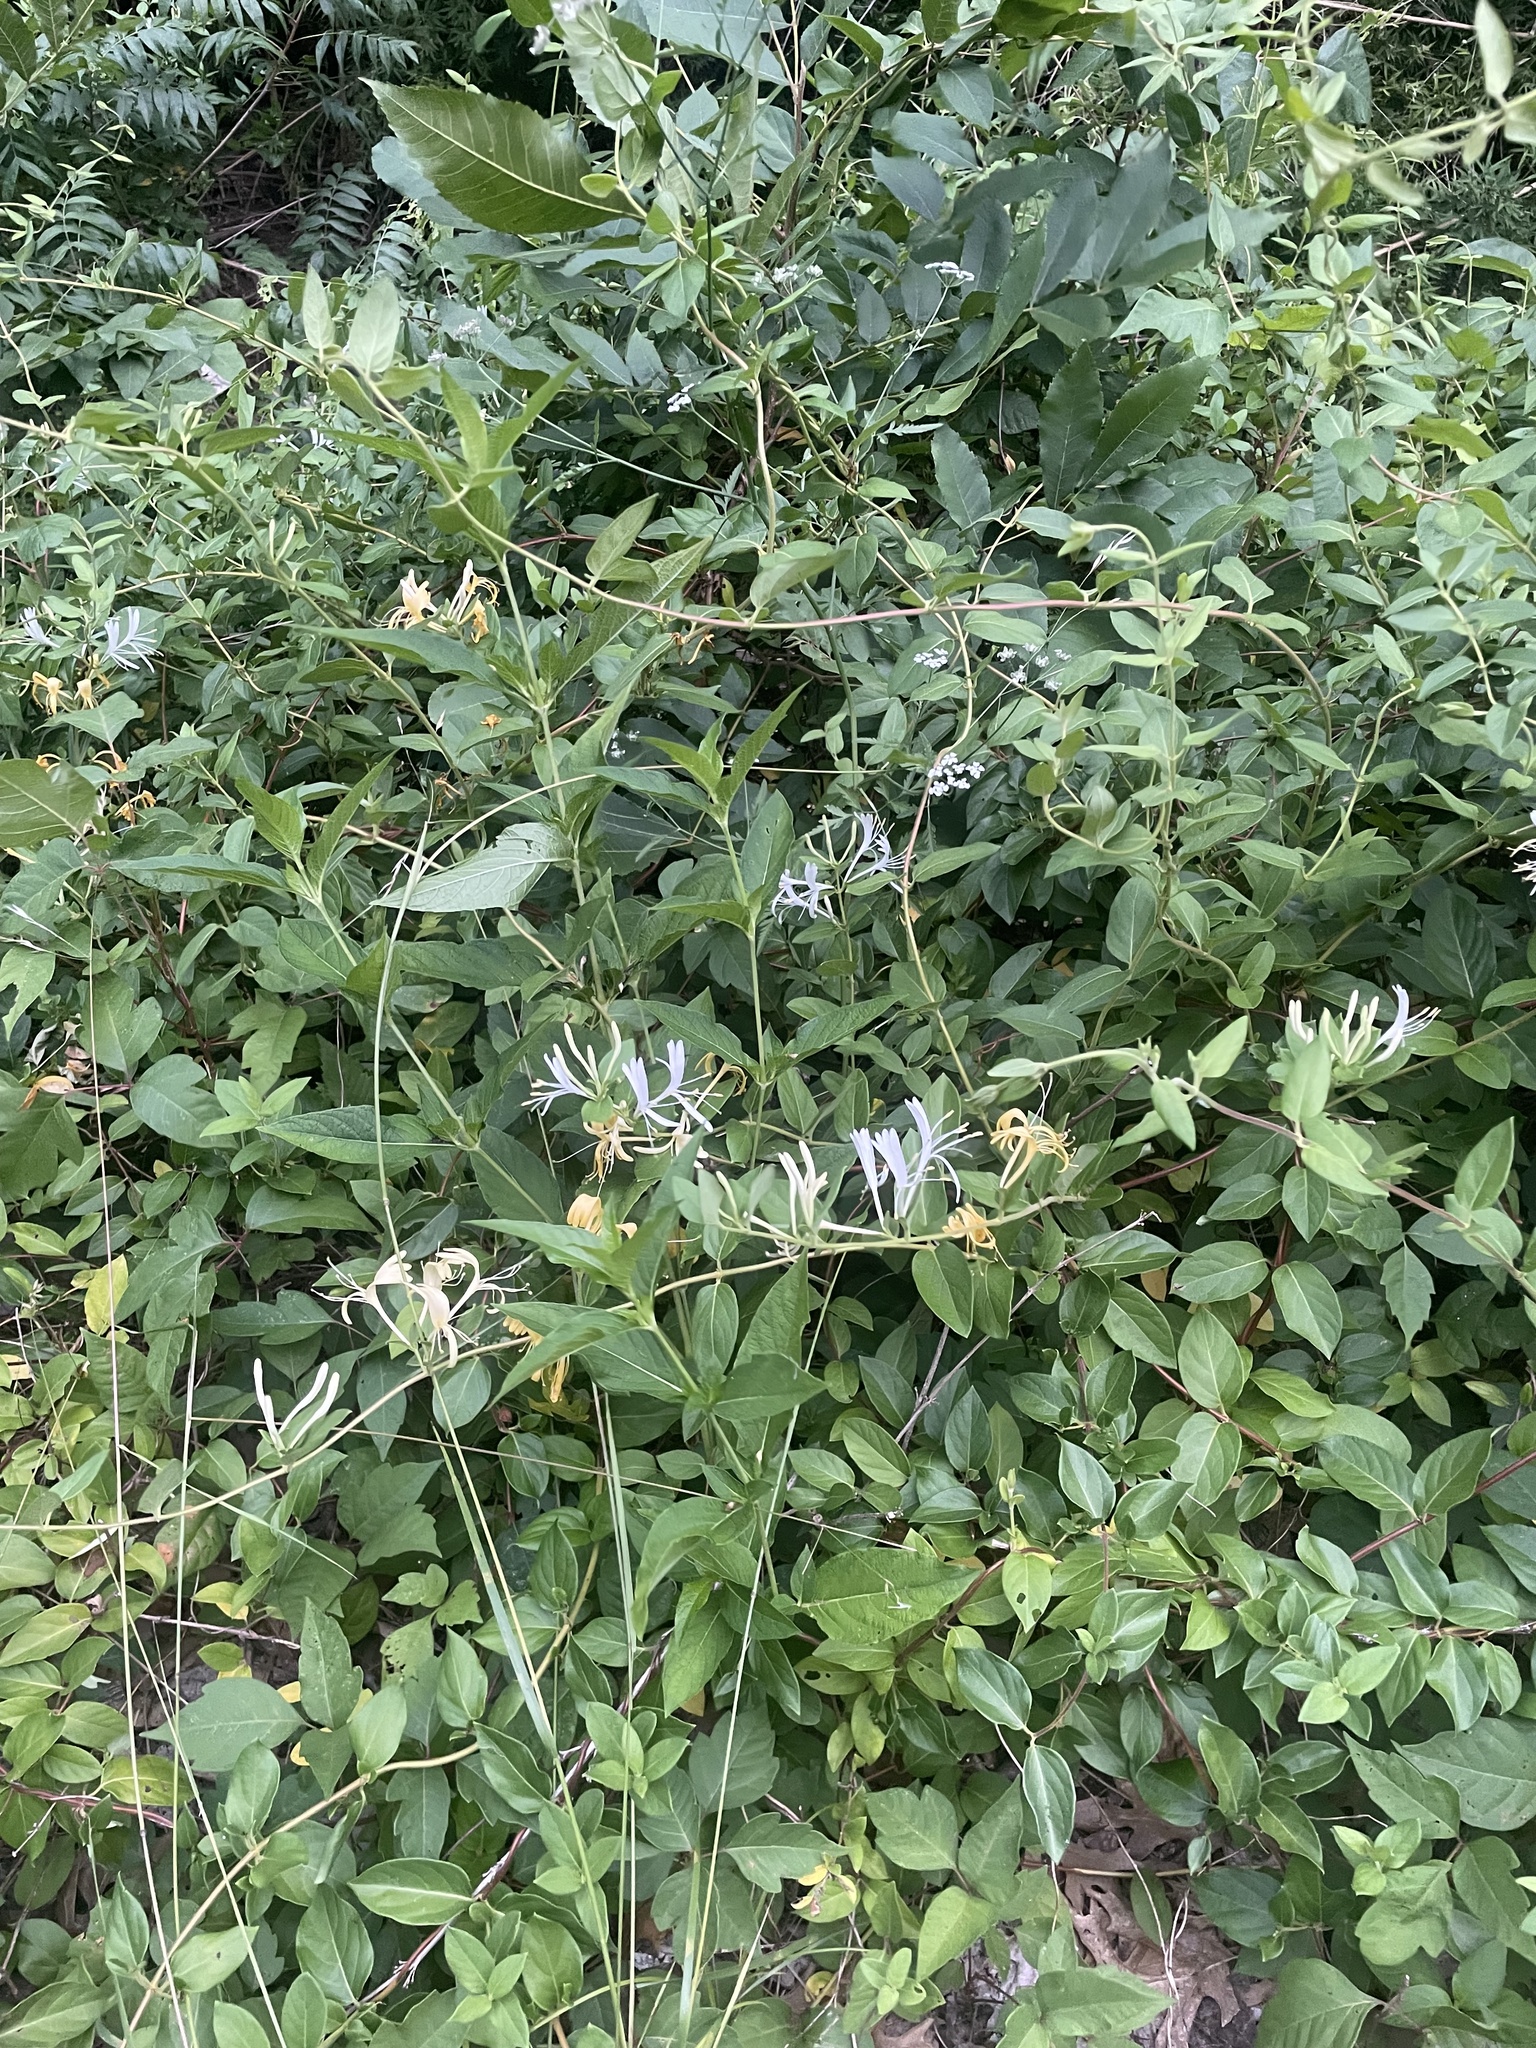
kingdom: Plantae
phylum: Tracheophyta
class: Magnoliopsida
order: Dipsacales
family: Caprifoliaceae
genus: Lonicera
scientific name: Lonicera japonica
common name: Japanese honeysuckle
